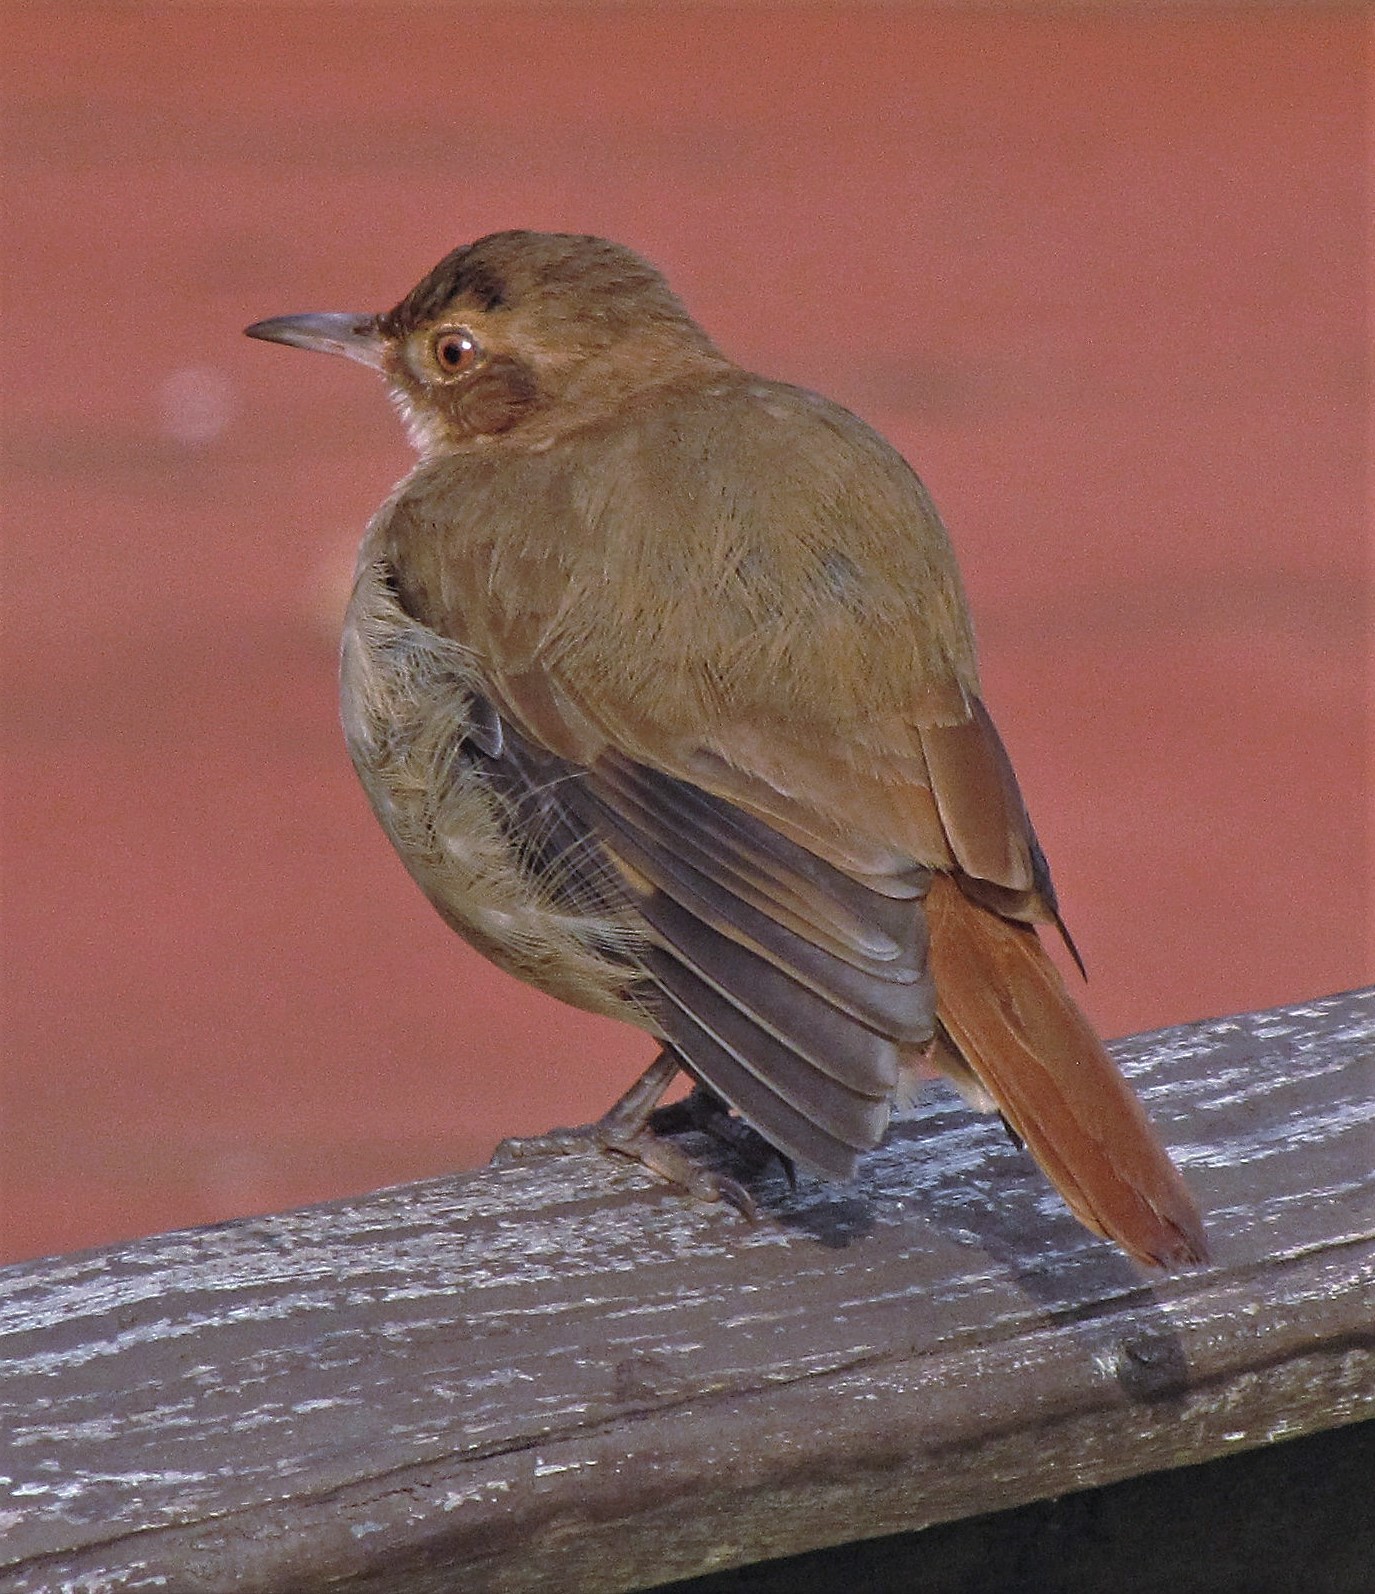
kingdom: Animalia
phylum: Chordata
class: Aves
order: Passeriformes
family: Furnariidae
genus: Furnarius
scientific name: Furnarius rufus
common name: Rufous hornero
